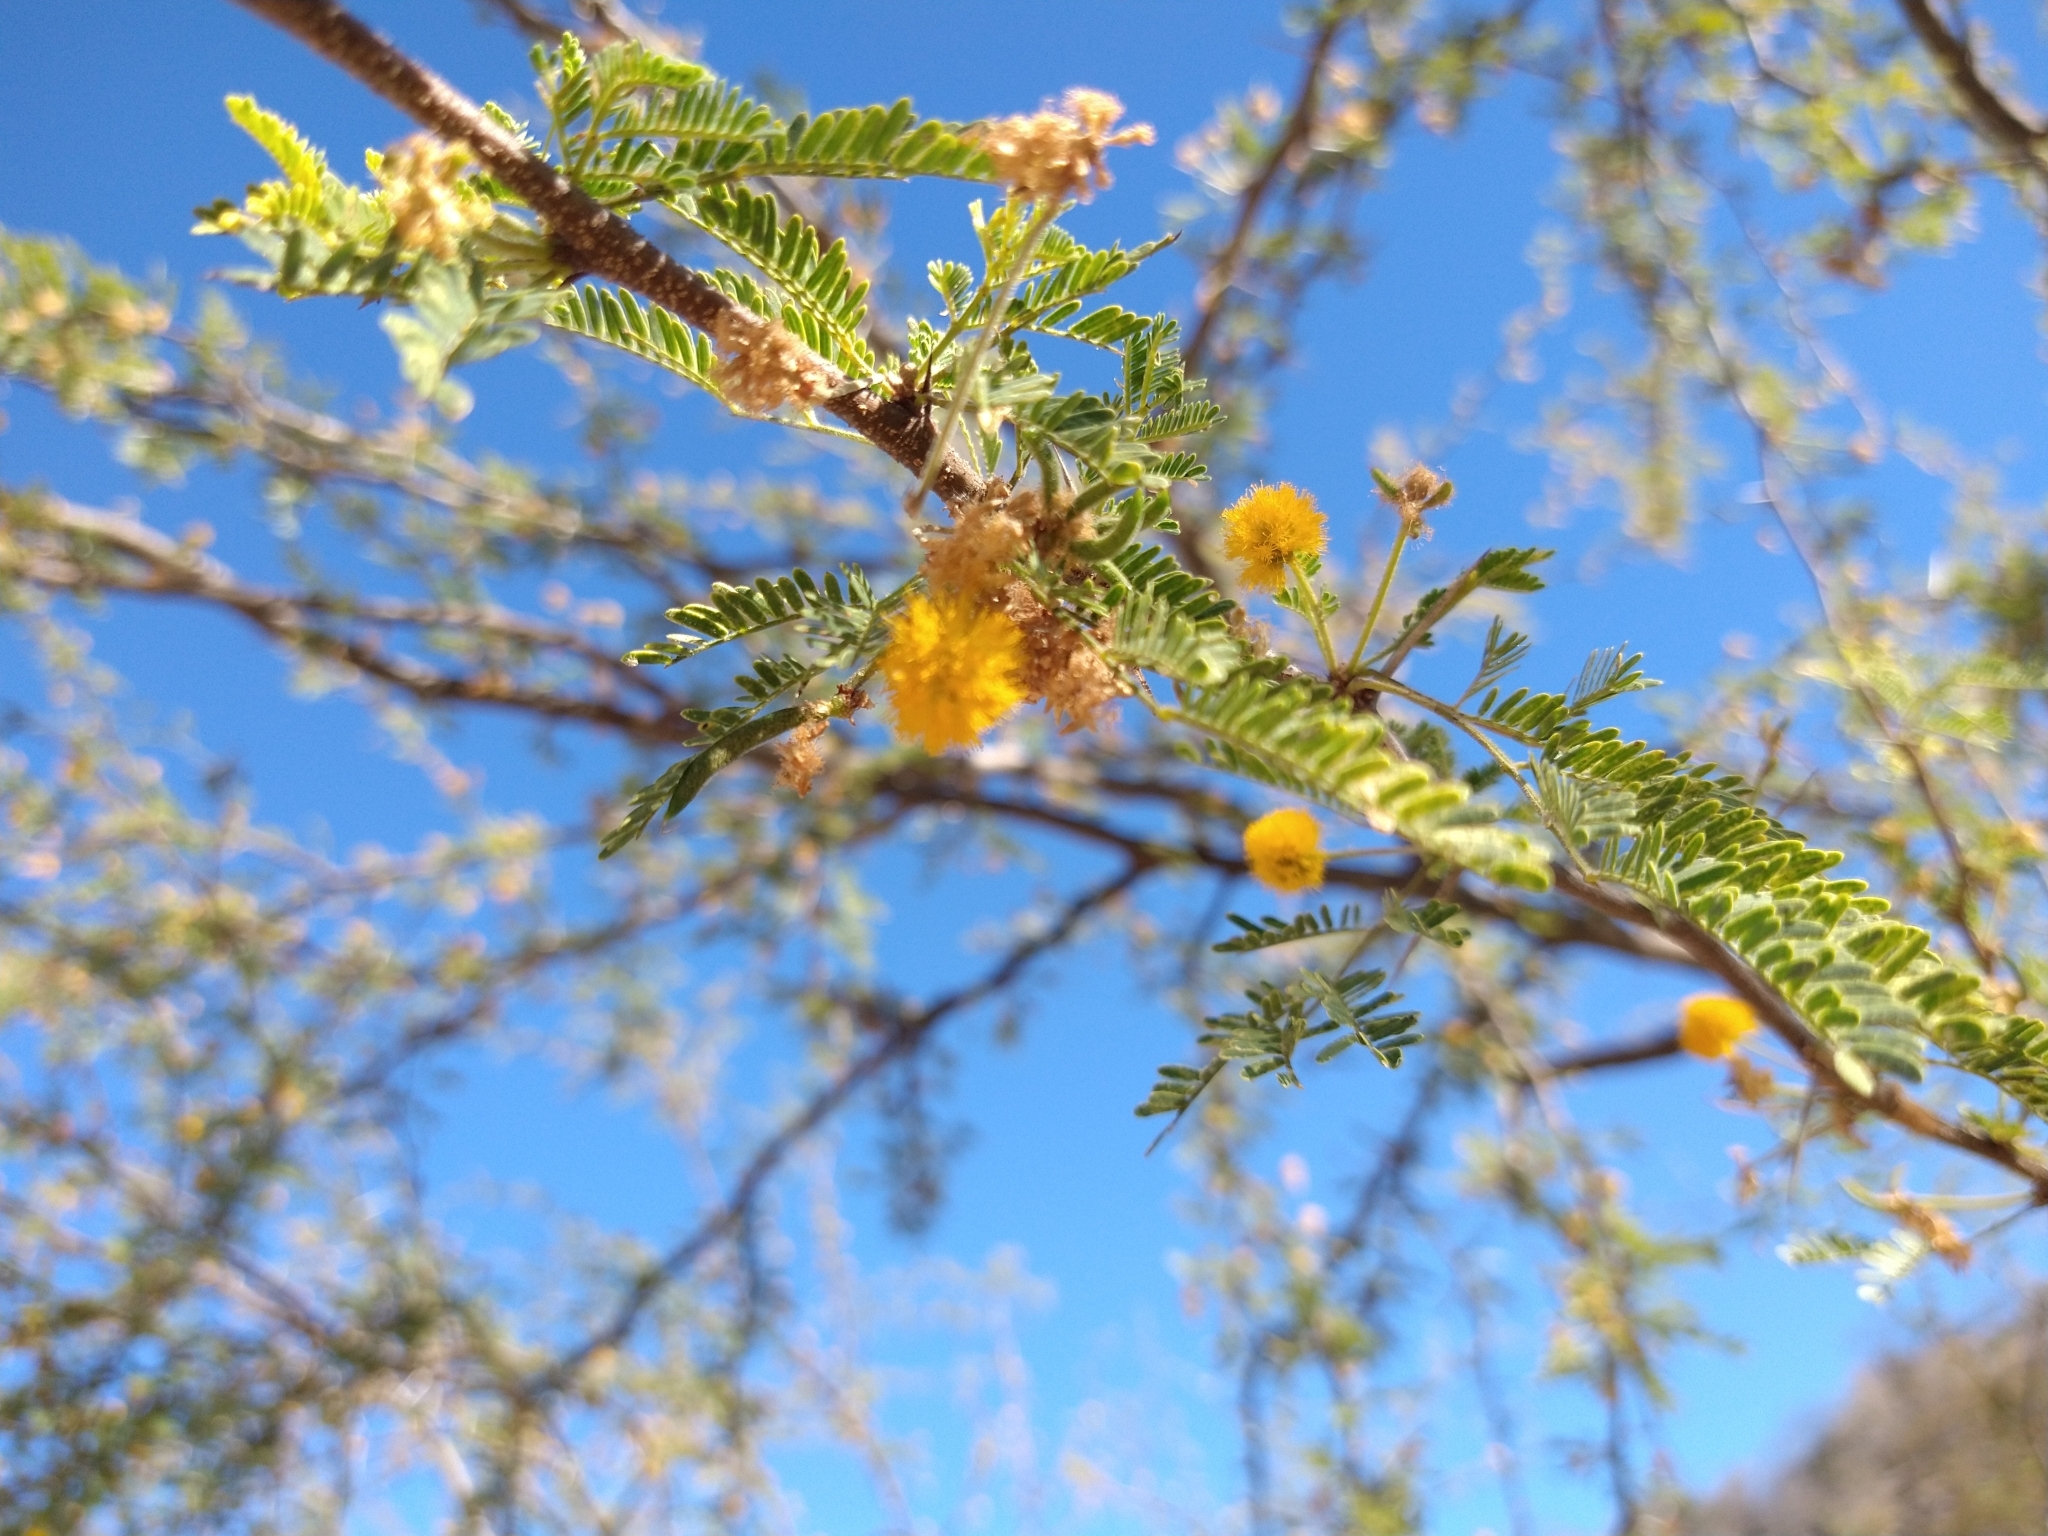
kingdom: Plantae
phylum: Tracheophyta
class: Magnoliopsida
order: Fabales
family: Fabaceae
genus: Vachellia
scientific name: Vachellia farnesiana
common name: Sweet acacia
